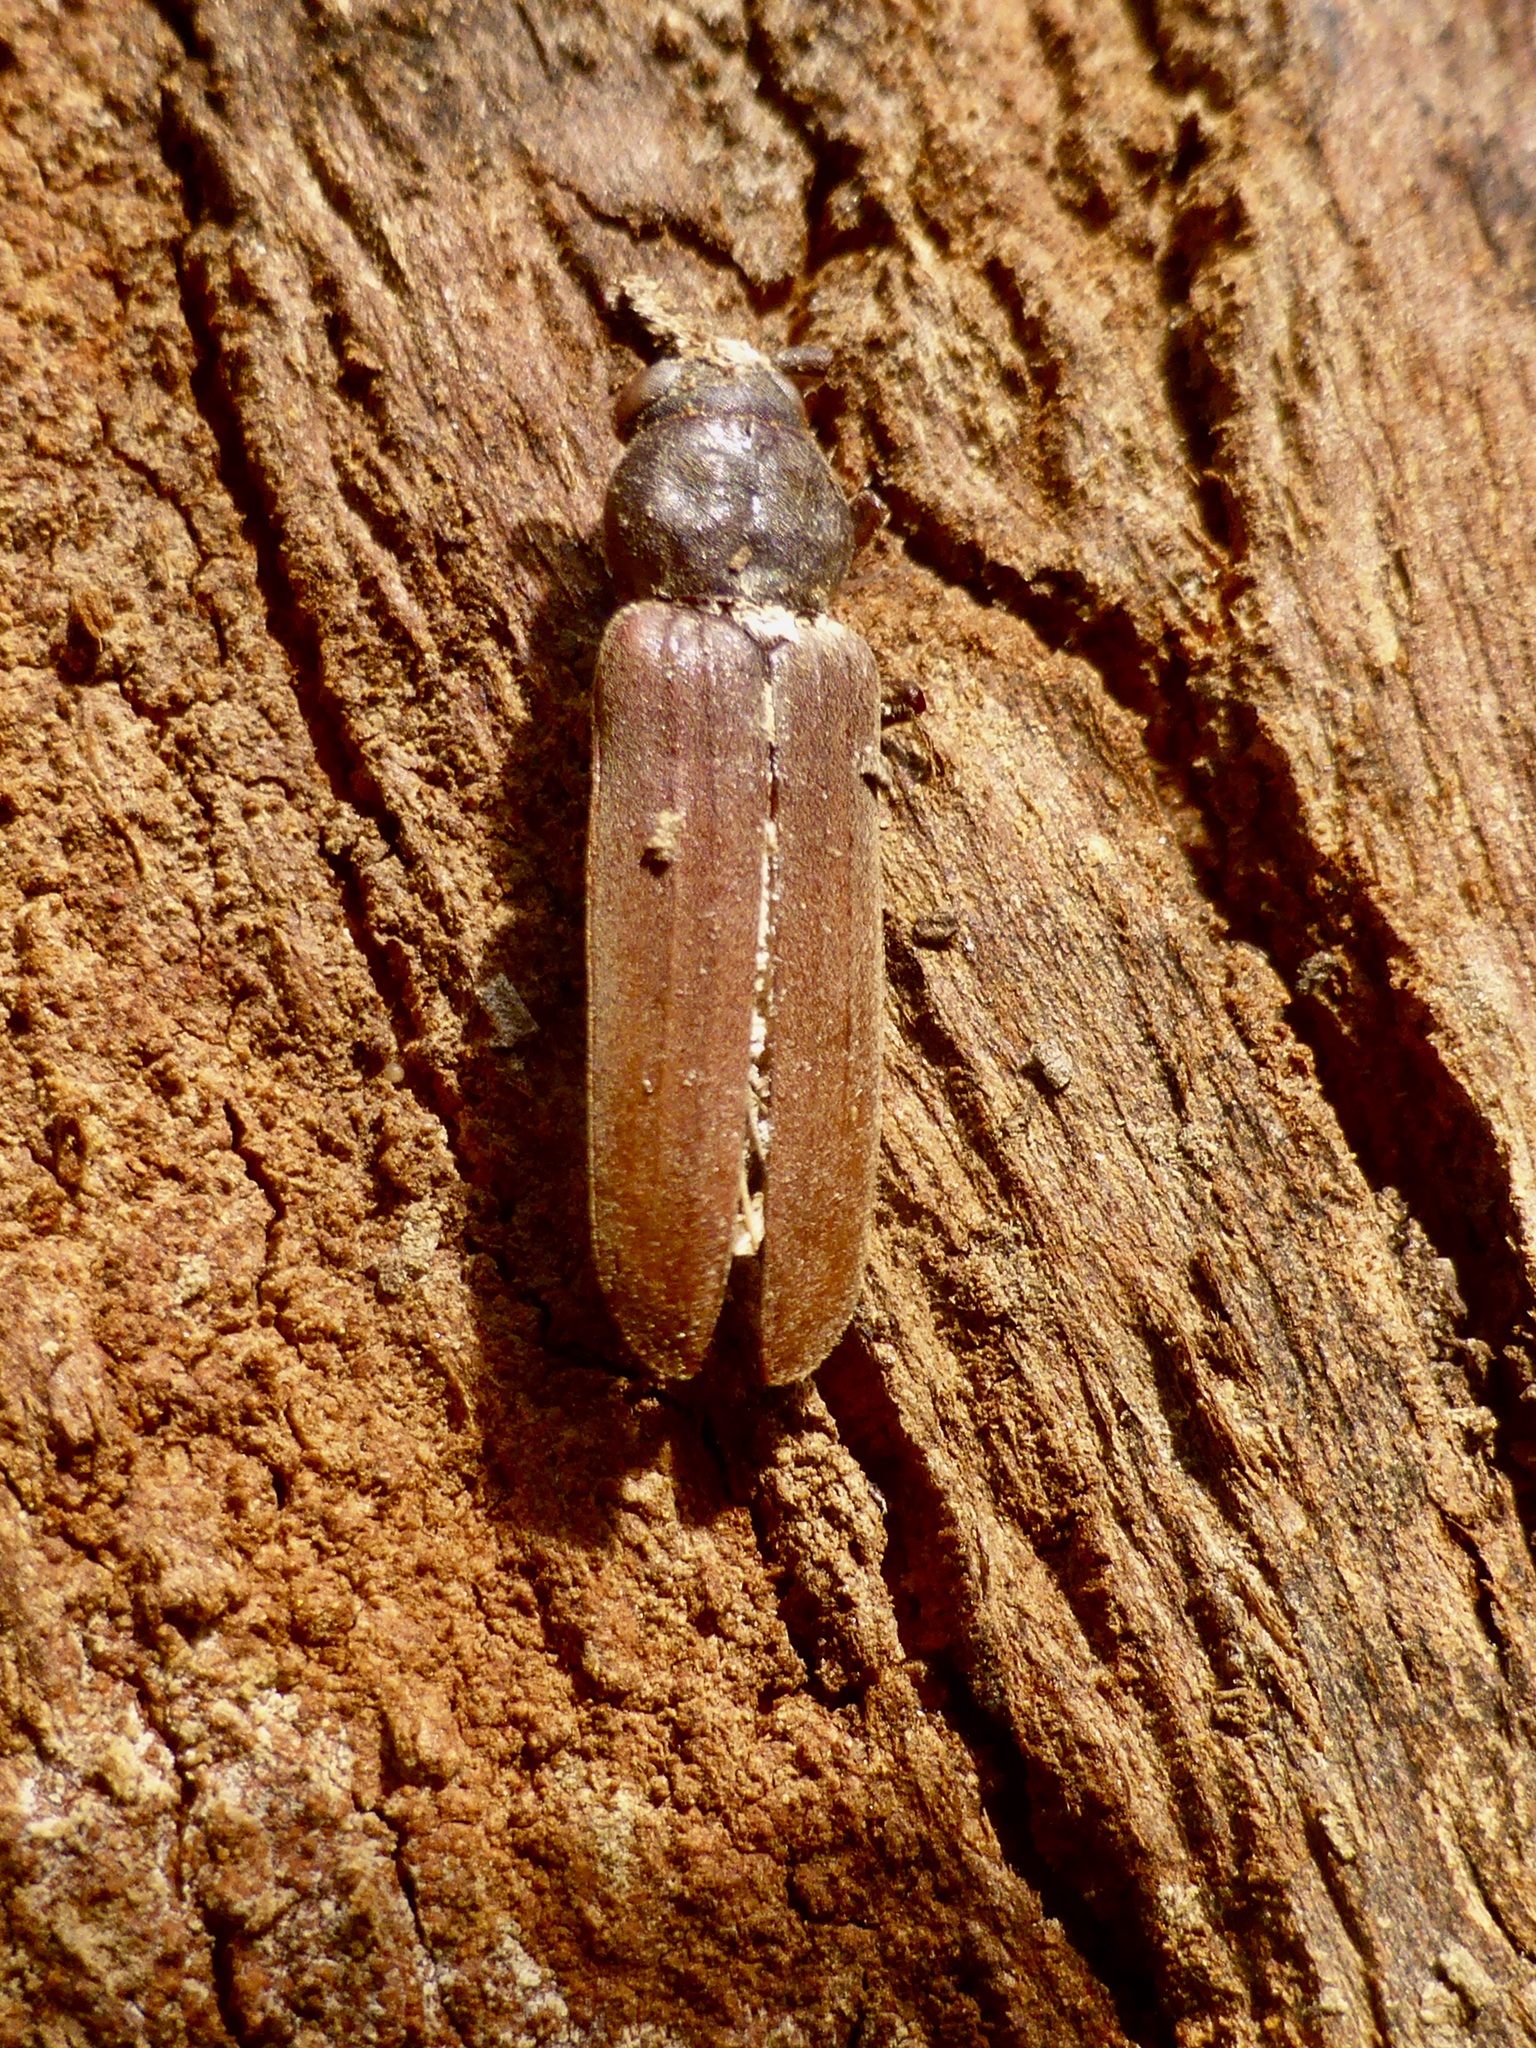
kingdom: Animalia
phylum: Arthropoda
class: Insecta
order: Coleoptera
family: Cerambycidae
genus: Arhopalus
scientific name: Arhopalus ferus
